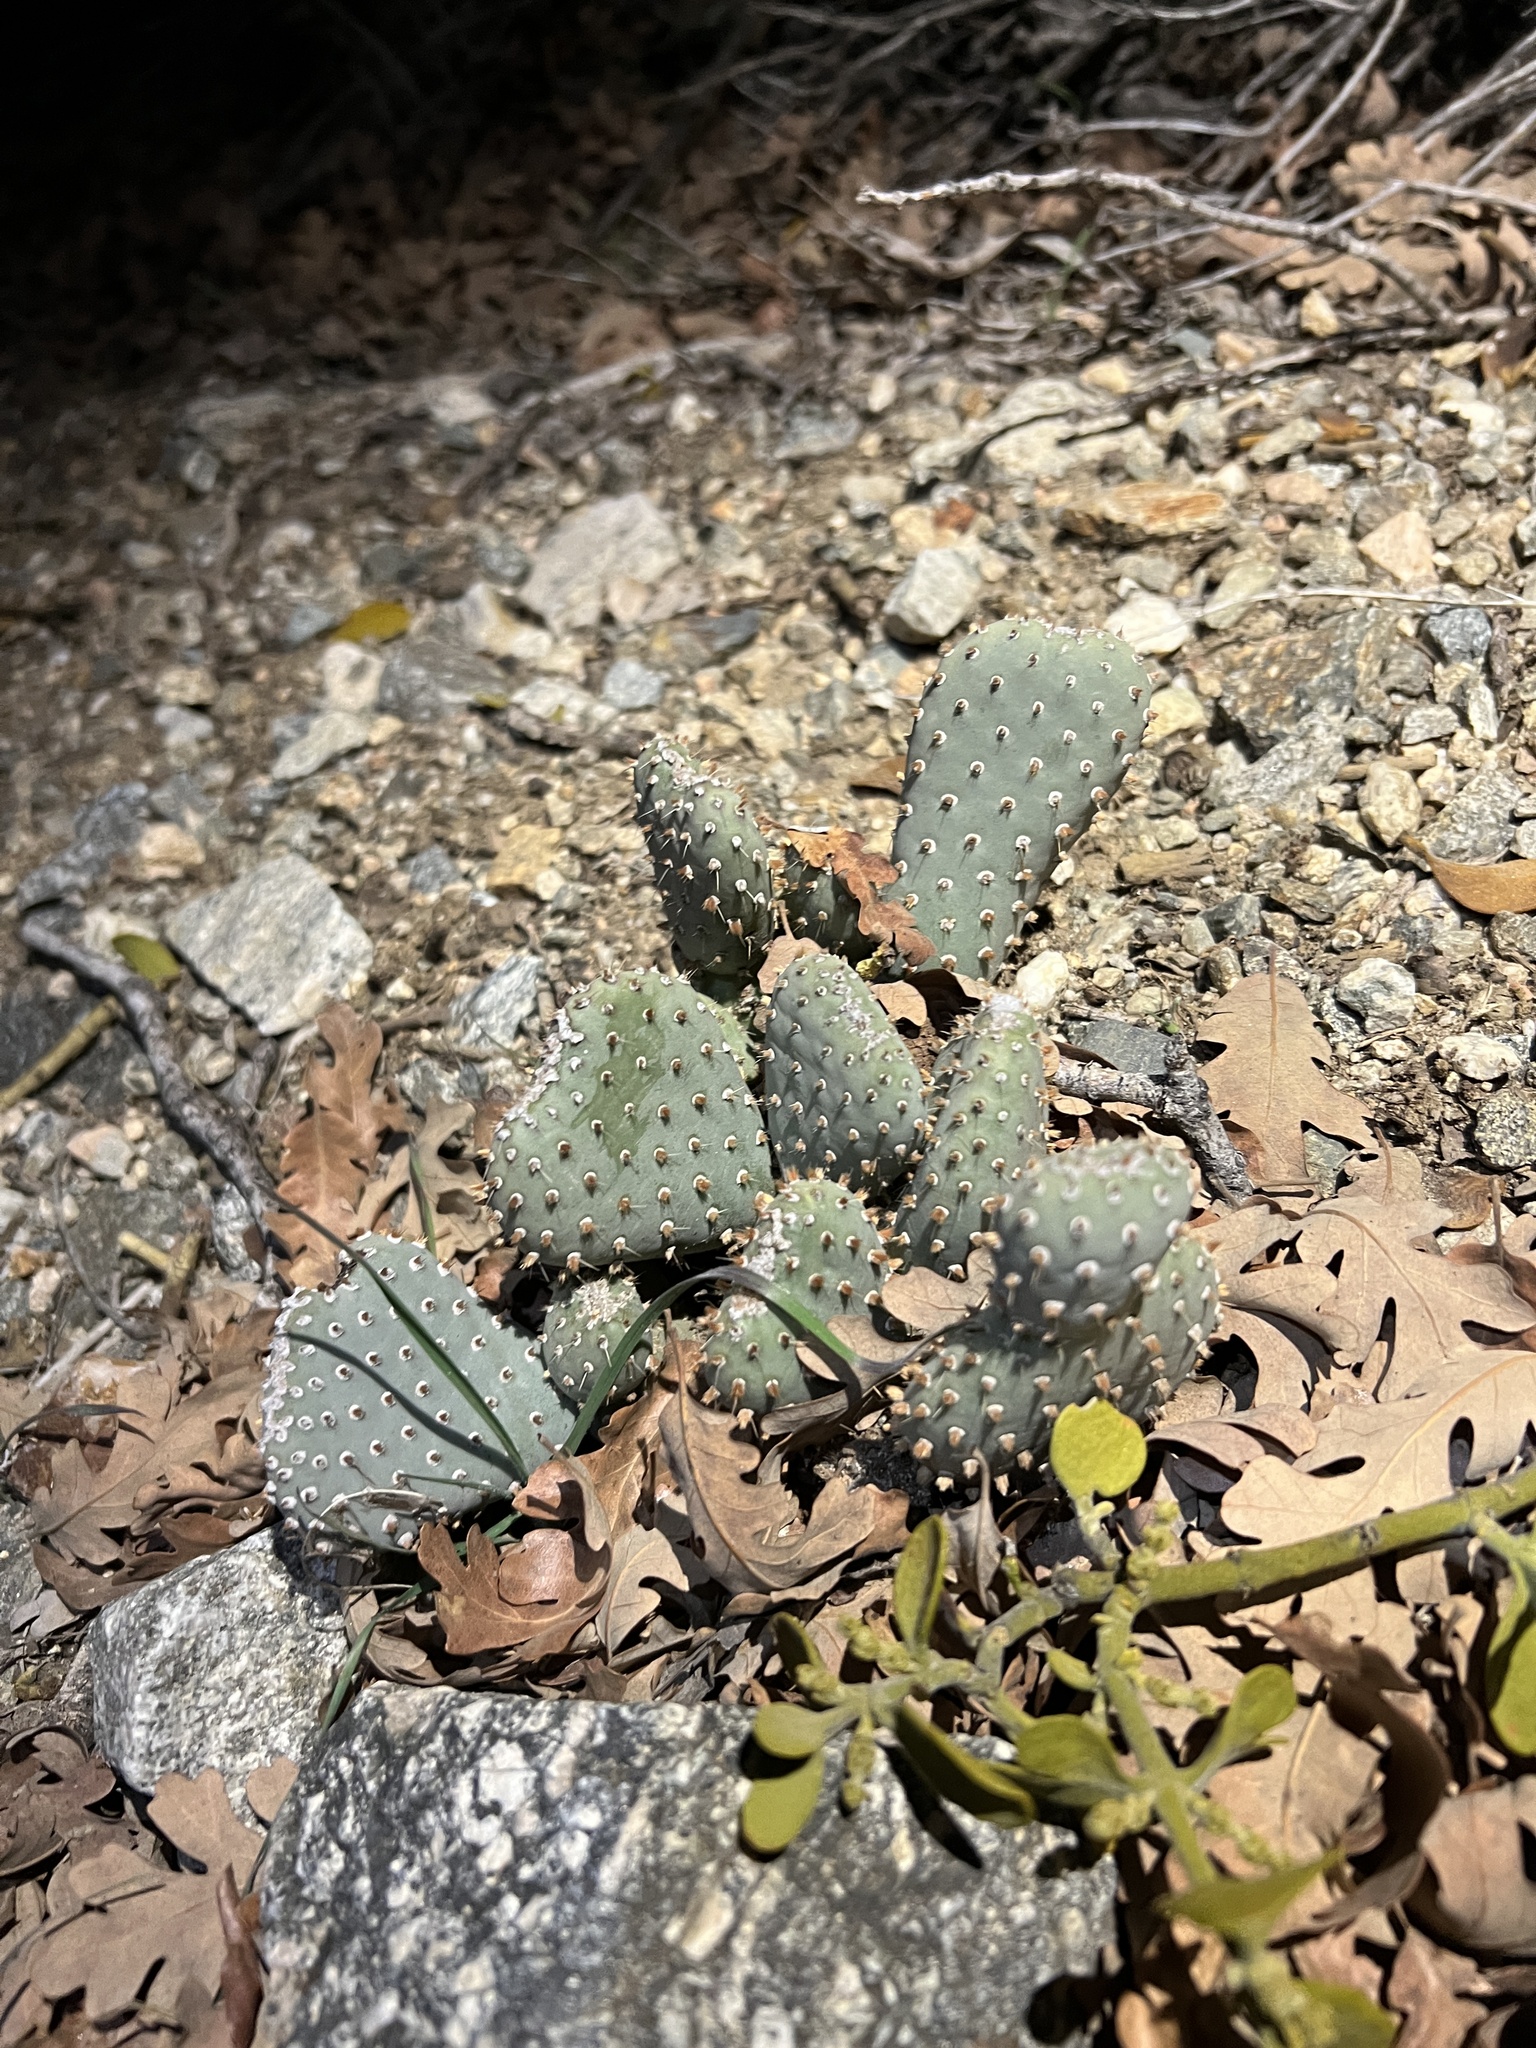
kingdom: Plantae
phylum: Tracheophyta
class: Magnoliopsida
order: Caryophyllales
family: Cactaceae
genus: Opuntia
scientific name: Opuntia basilaris
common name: Beavertail prickly-pear
